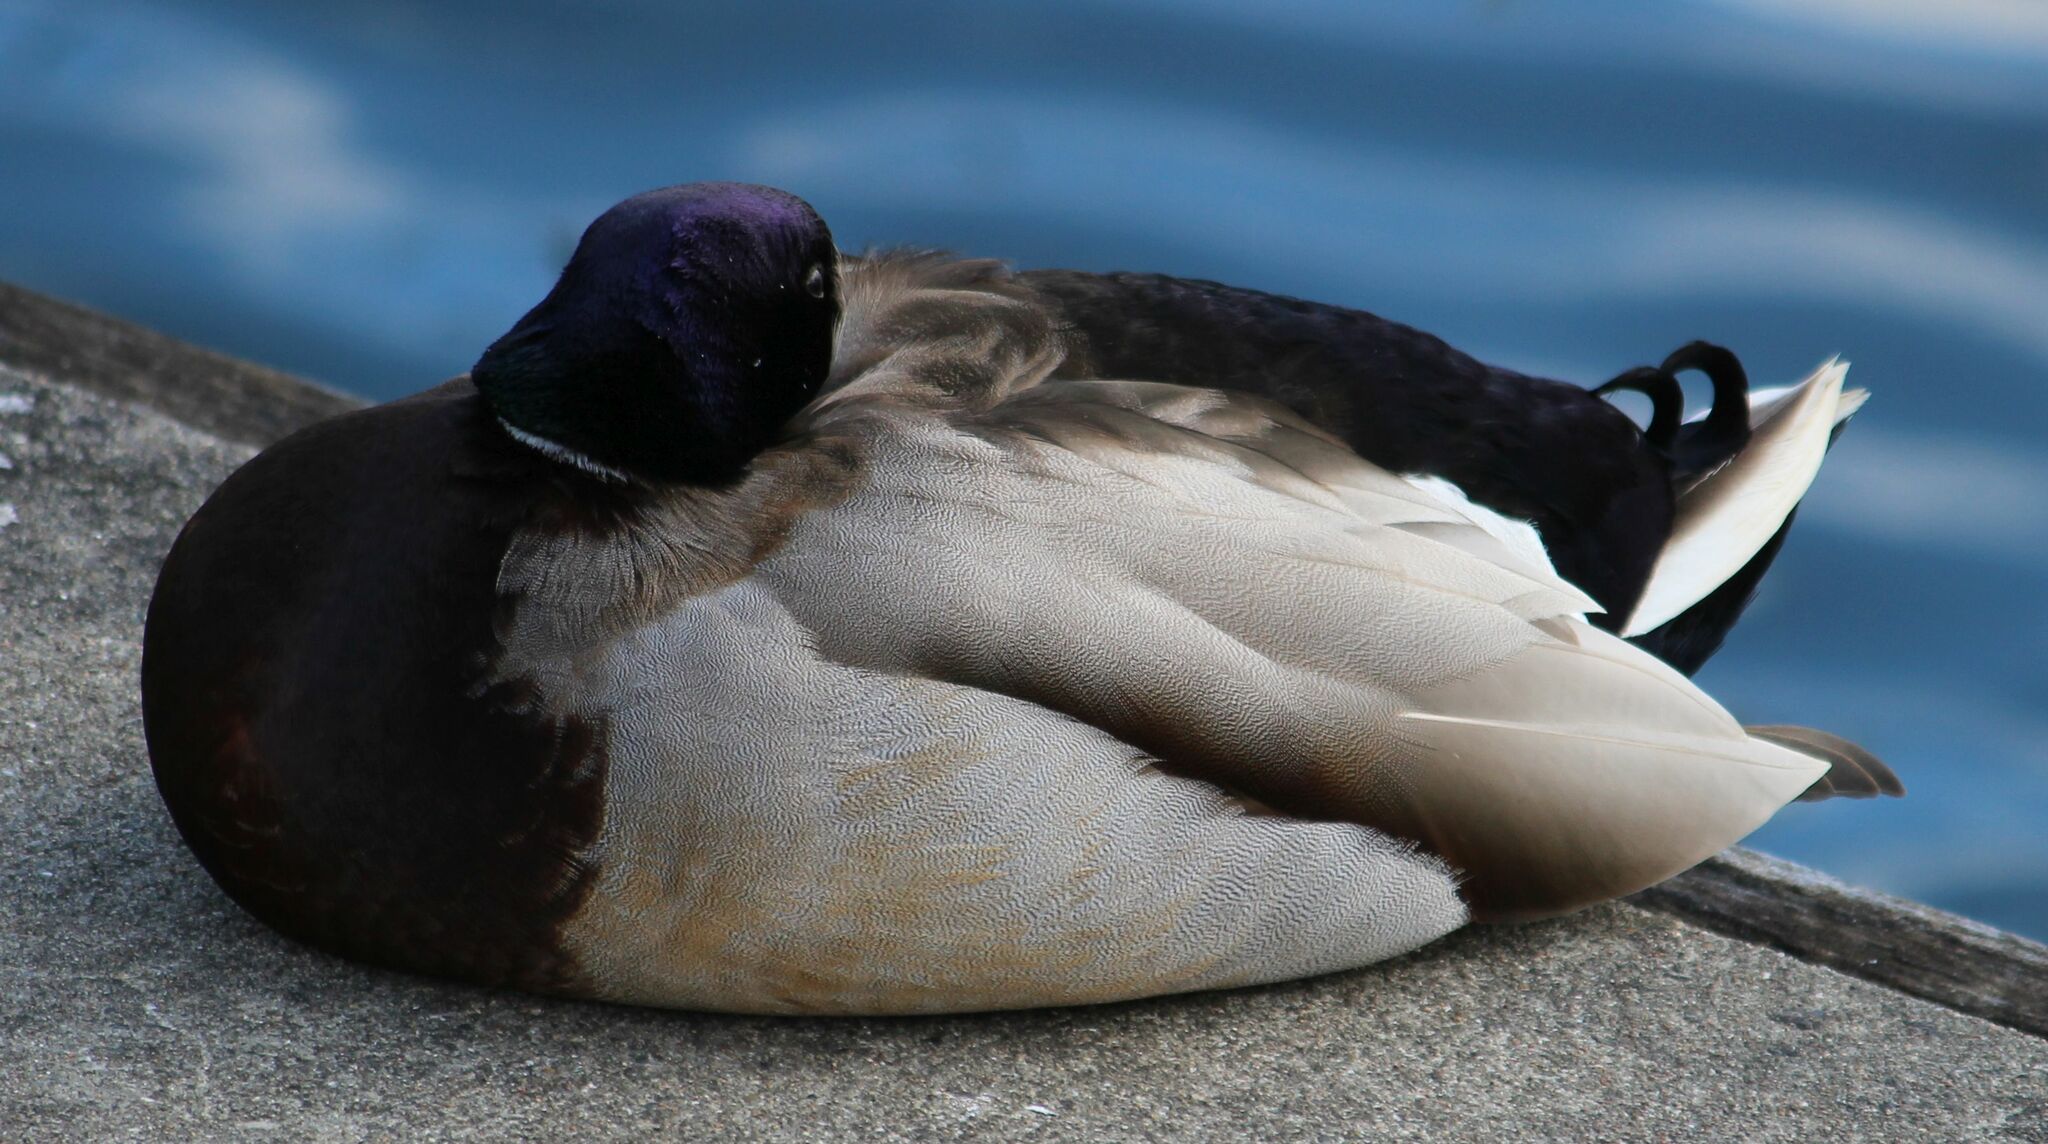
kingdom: Animalia
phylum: Chordata
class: Aves
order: Anseriformes
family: Anatidae
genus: Anas
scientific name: Anas platyrhynchos
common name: Mallard
